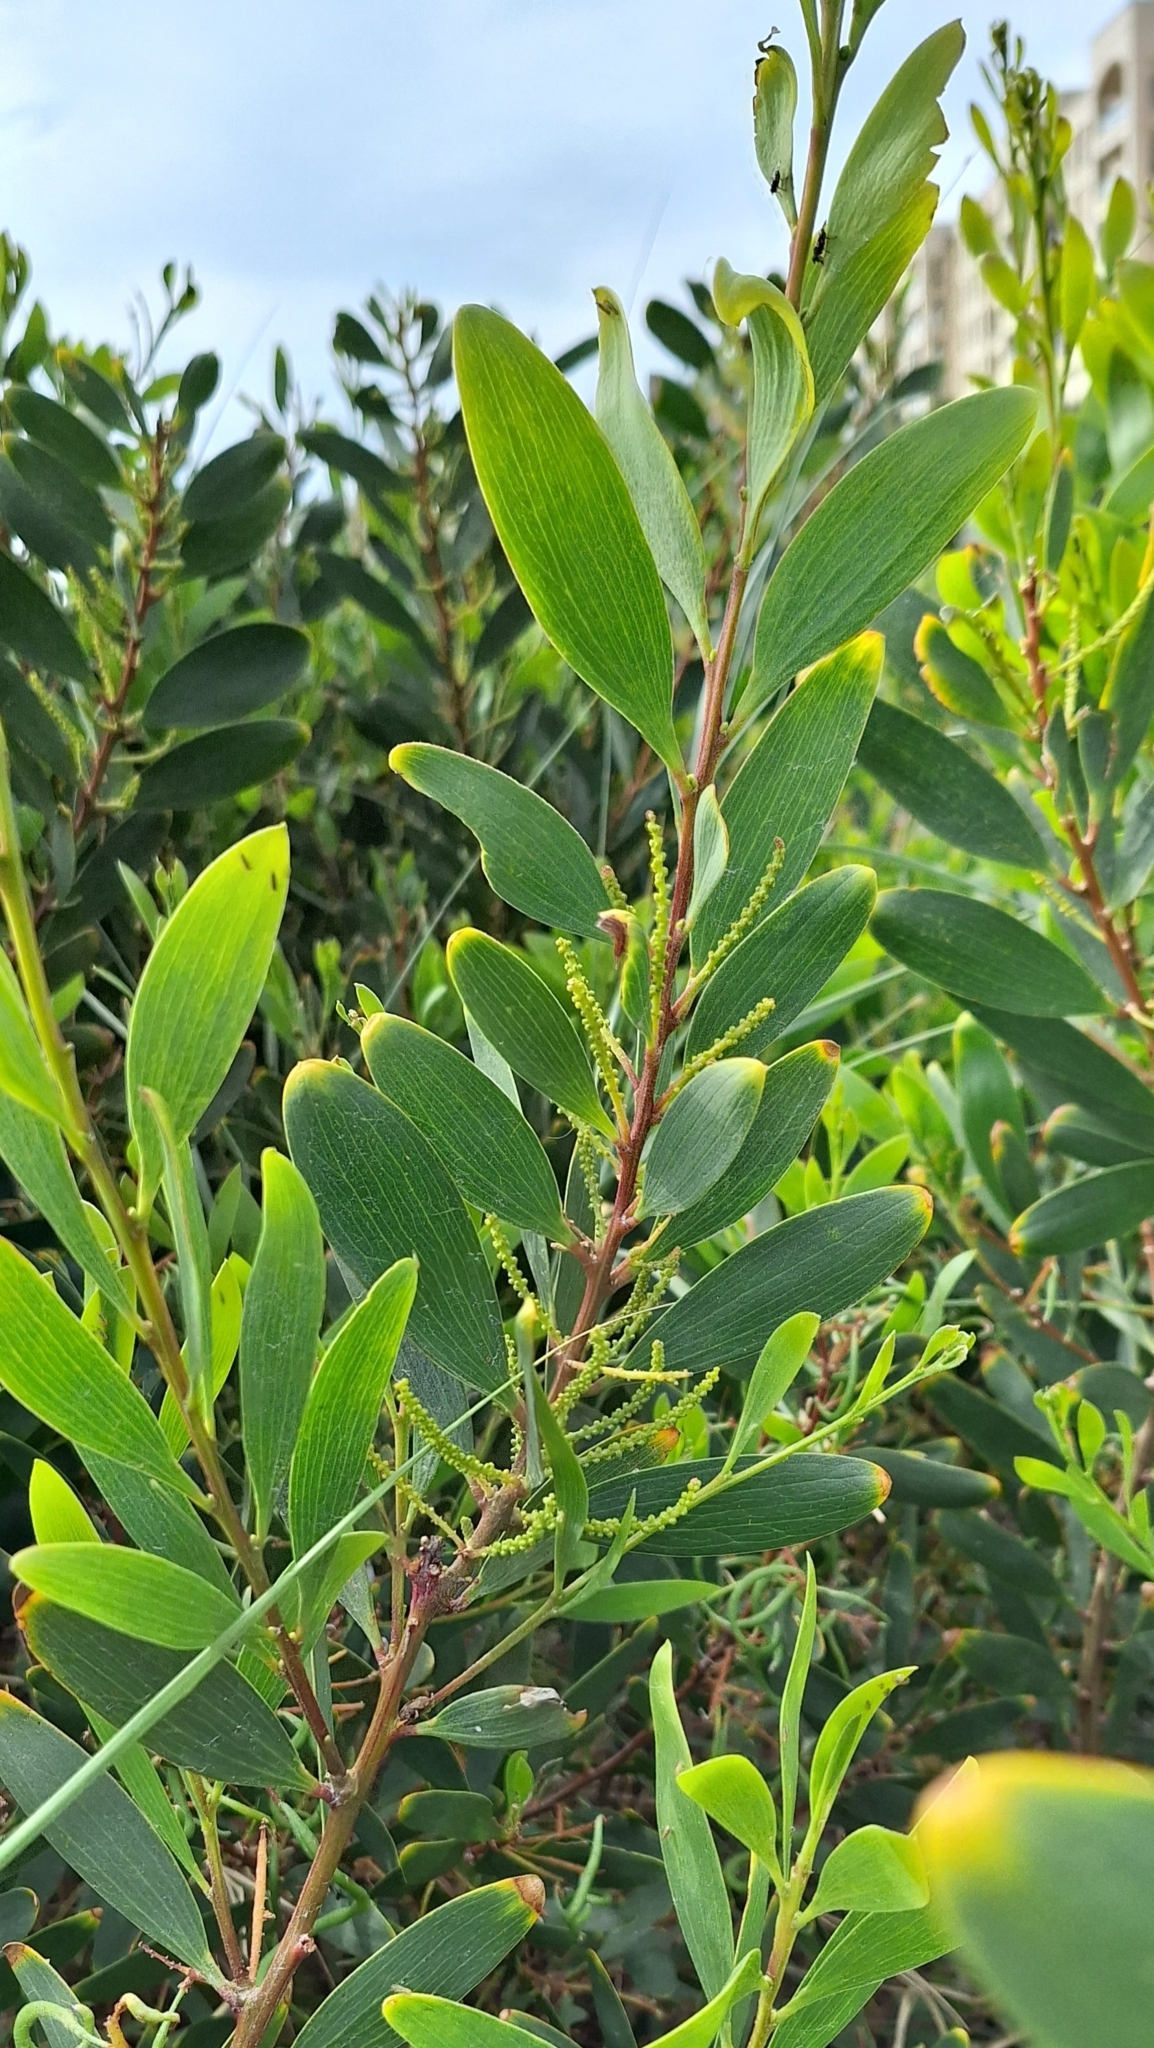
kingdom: Plantae
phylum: Tracheophyta
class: Magnoliopsida
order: Fabales
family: Fabaceae
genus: Acacia
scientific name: Acacia longifolia
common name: Sydney golden wattle
